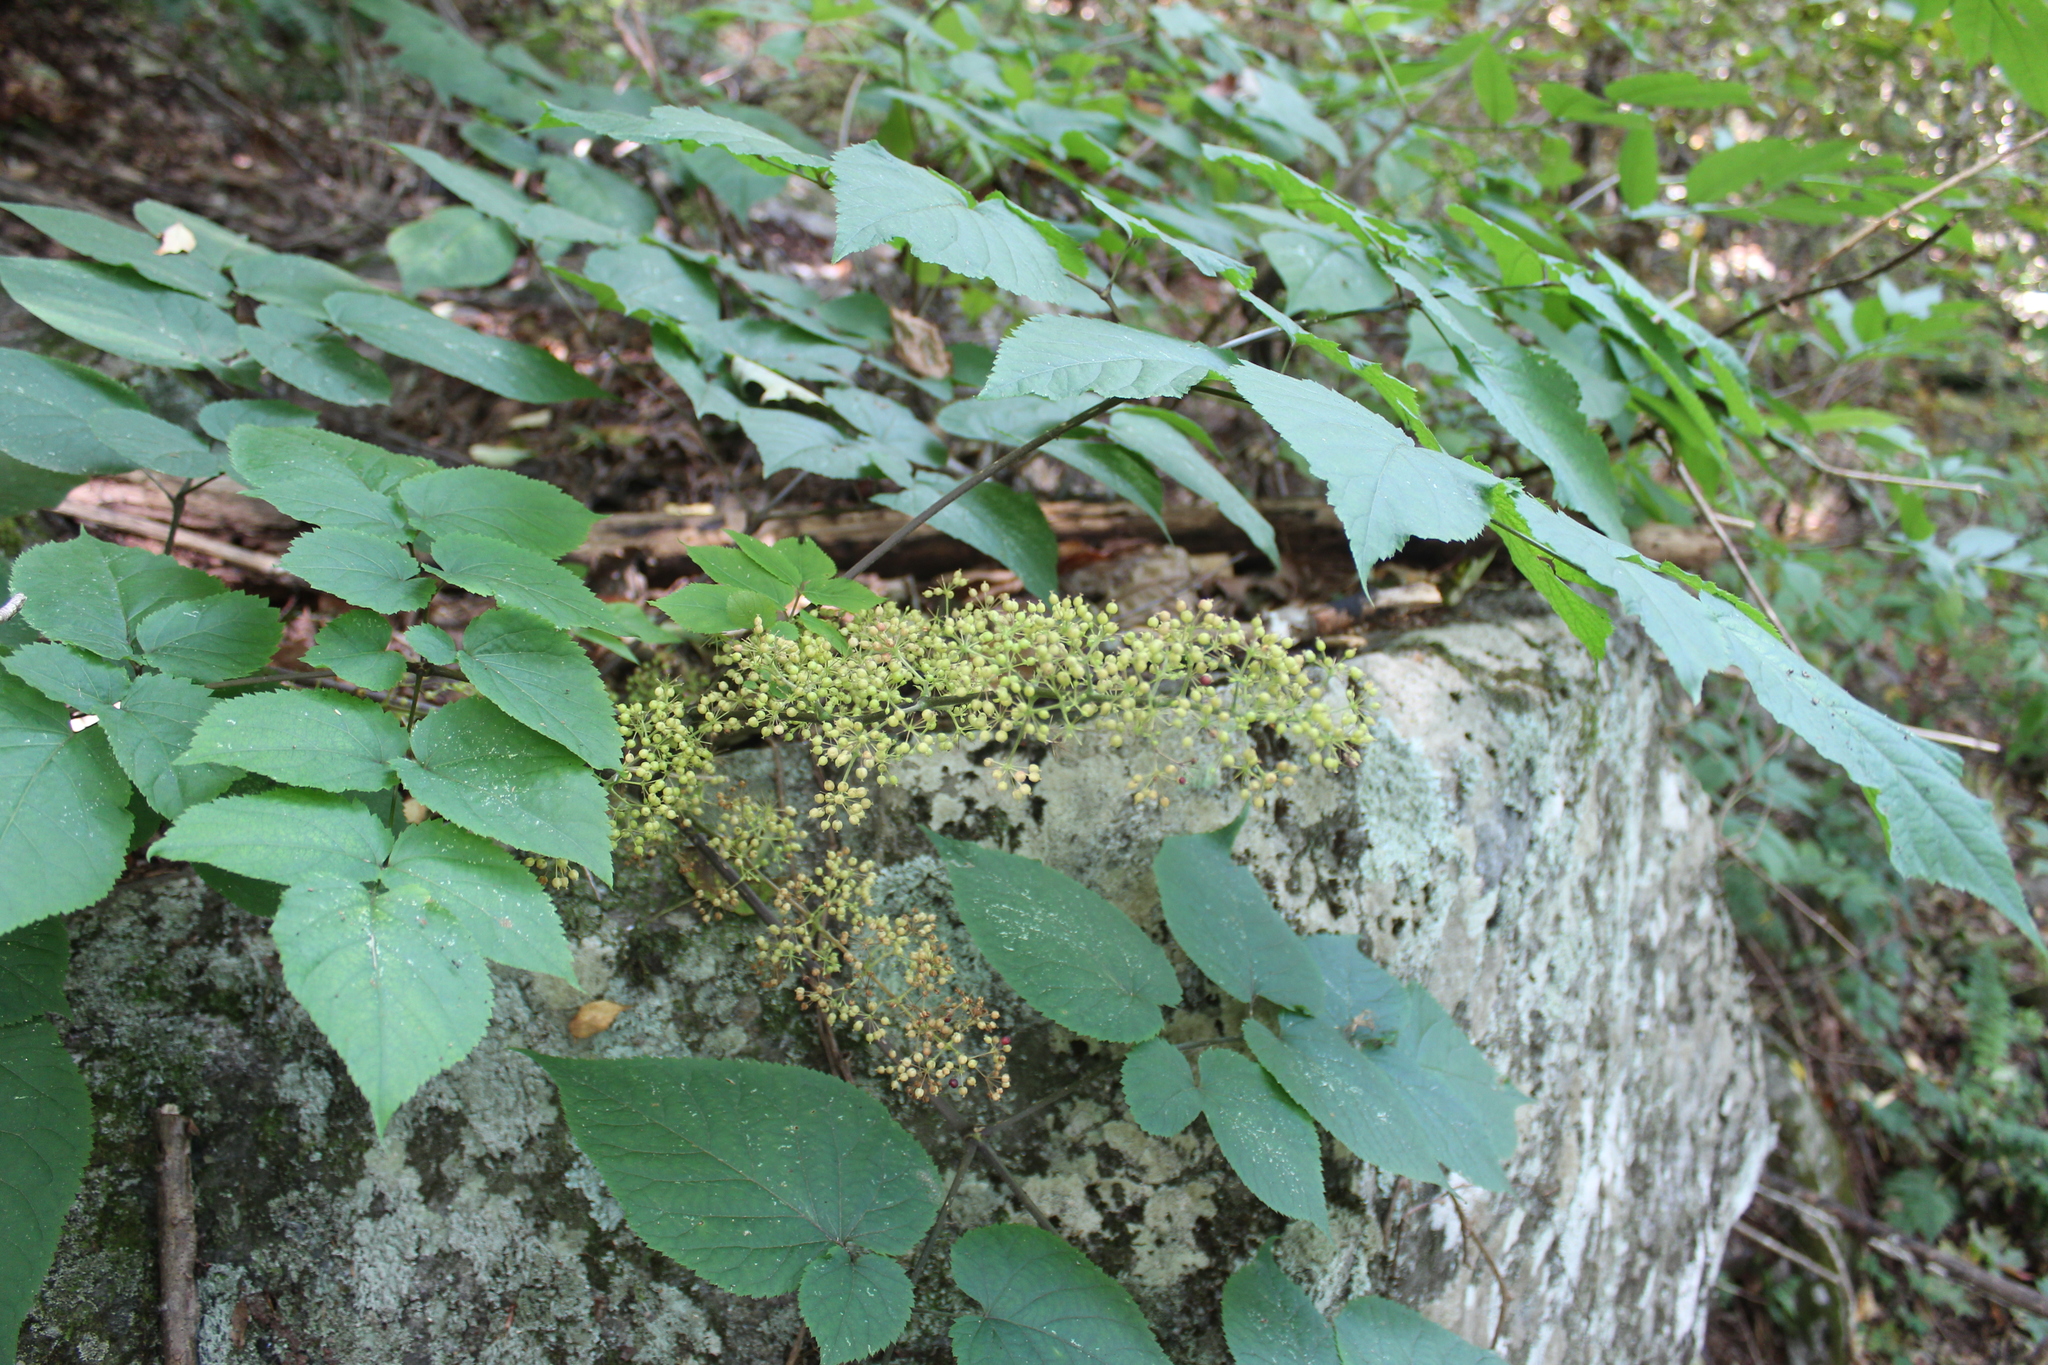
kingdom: Plantae
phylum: Tracheophyta
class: Magnoliopsida
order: Apiales
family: Araliaceae
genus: Aralia
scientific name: Aralia racemosa
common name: American-spikenard
